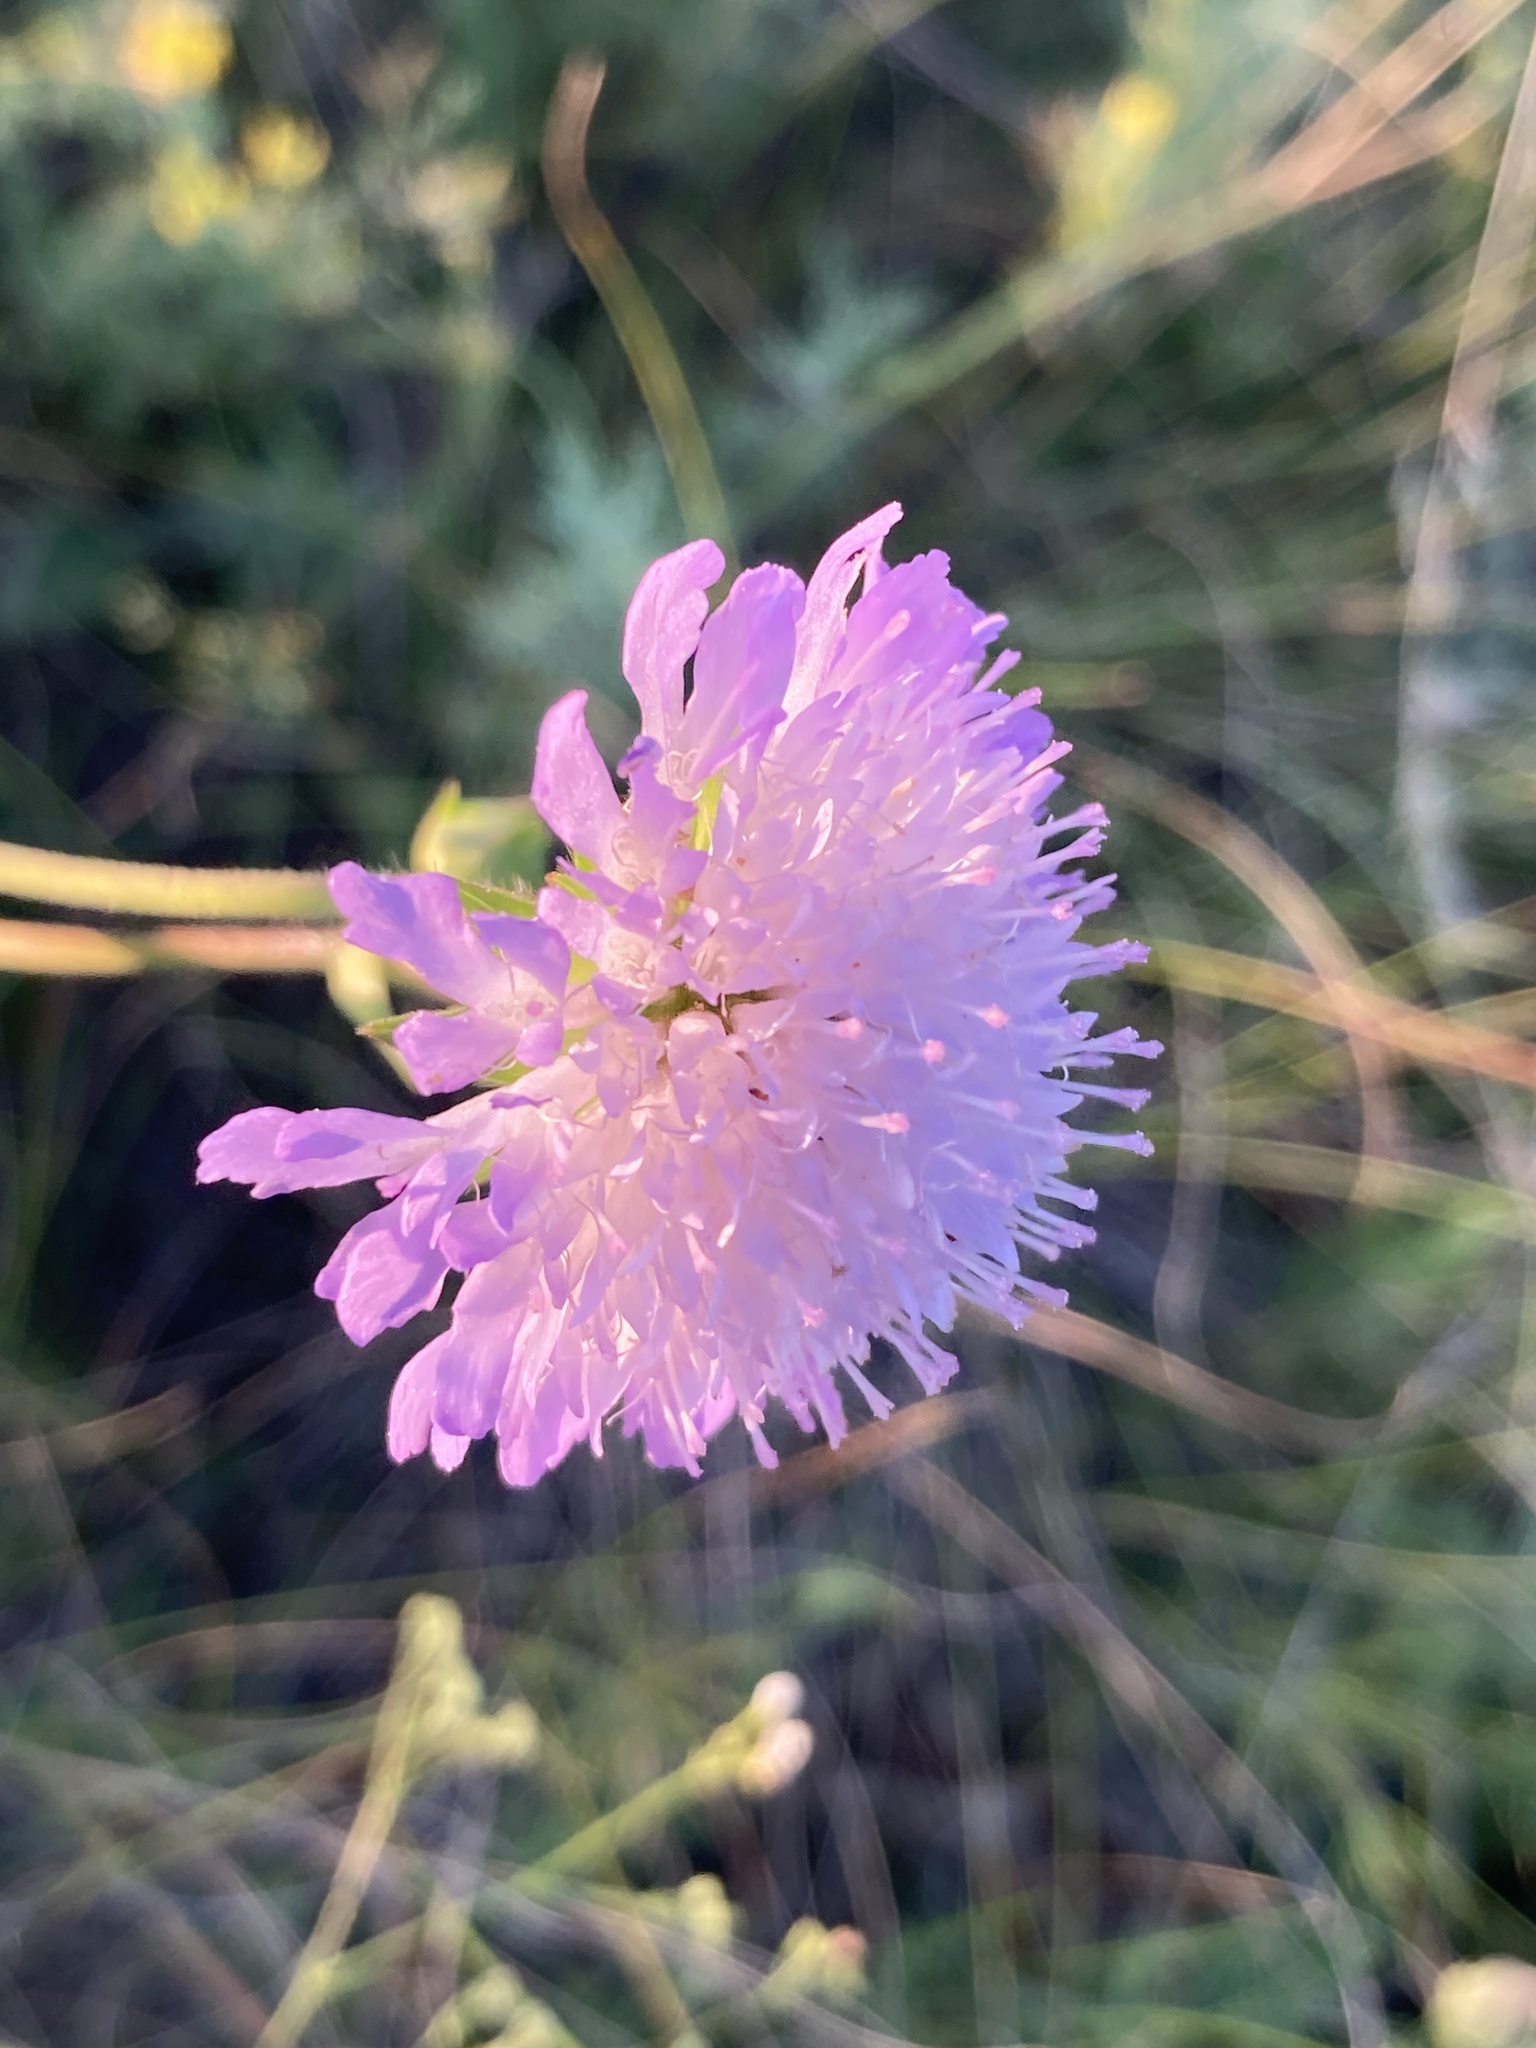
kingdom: Plantae
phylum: Tracheophyta
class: Magnoliopsida
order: Dipsacales
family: Caprifoliaceae
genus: Knautia
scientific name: Knautia arvensis
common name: Field scabiosa
